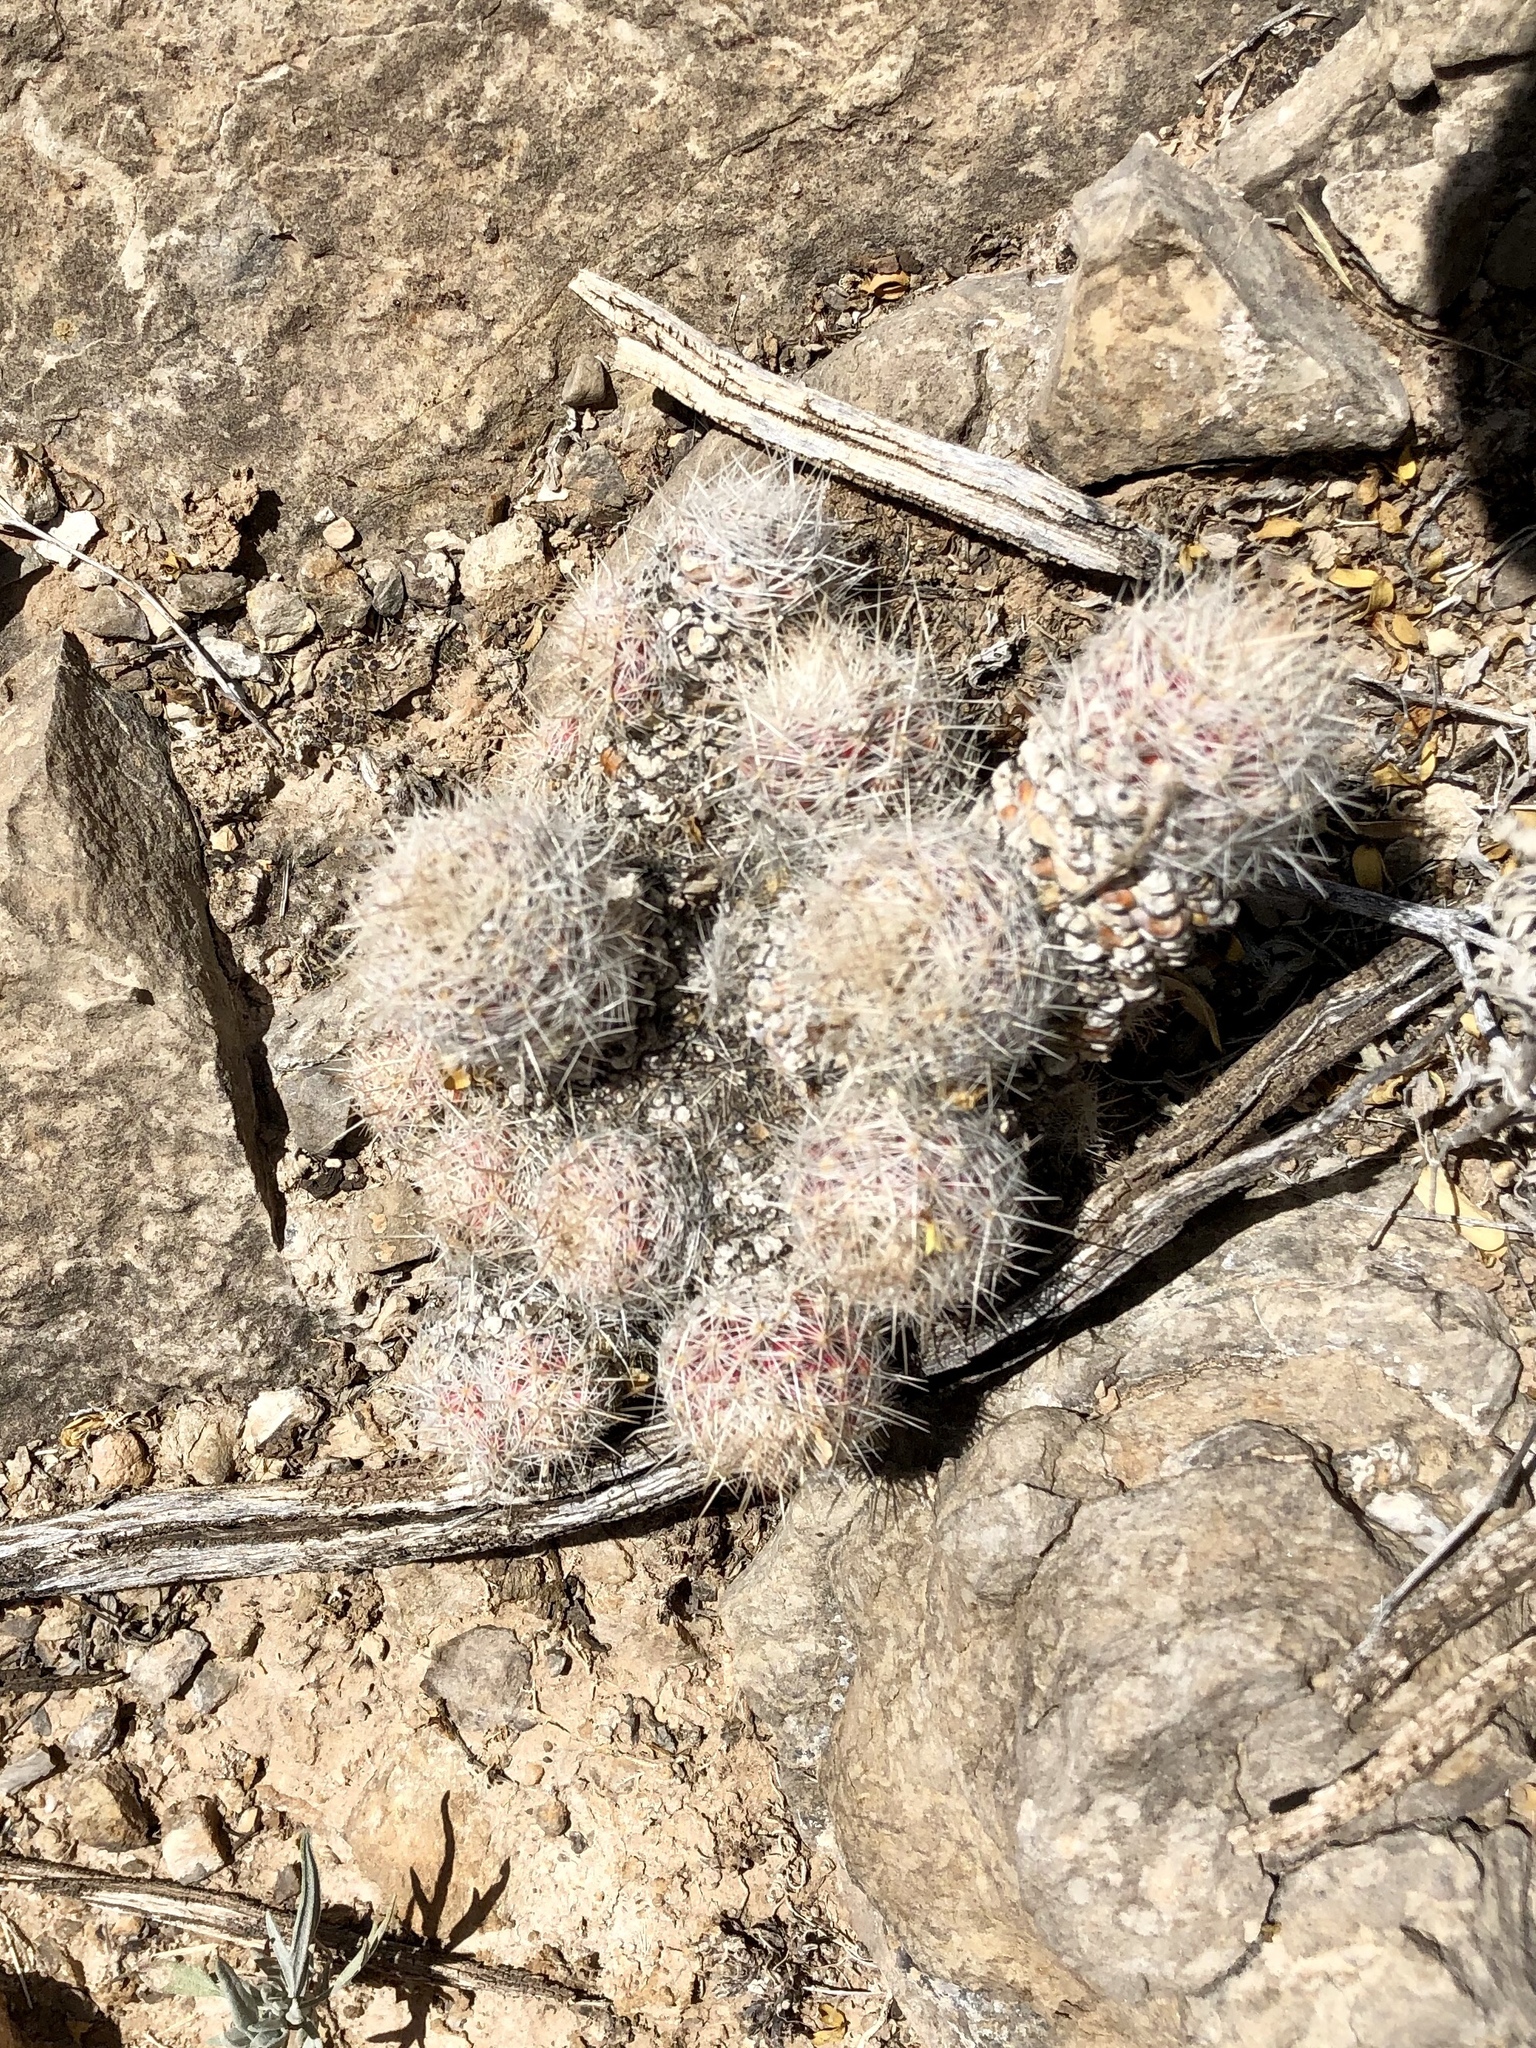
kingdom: Plantae
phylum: Tracheophyta
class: Magnoliopsida
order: Caryophyllales
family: Cactaceae
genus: Pelecyphora
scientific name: Pelecyphora tuberculosa
